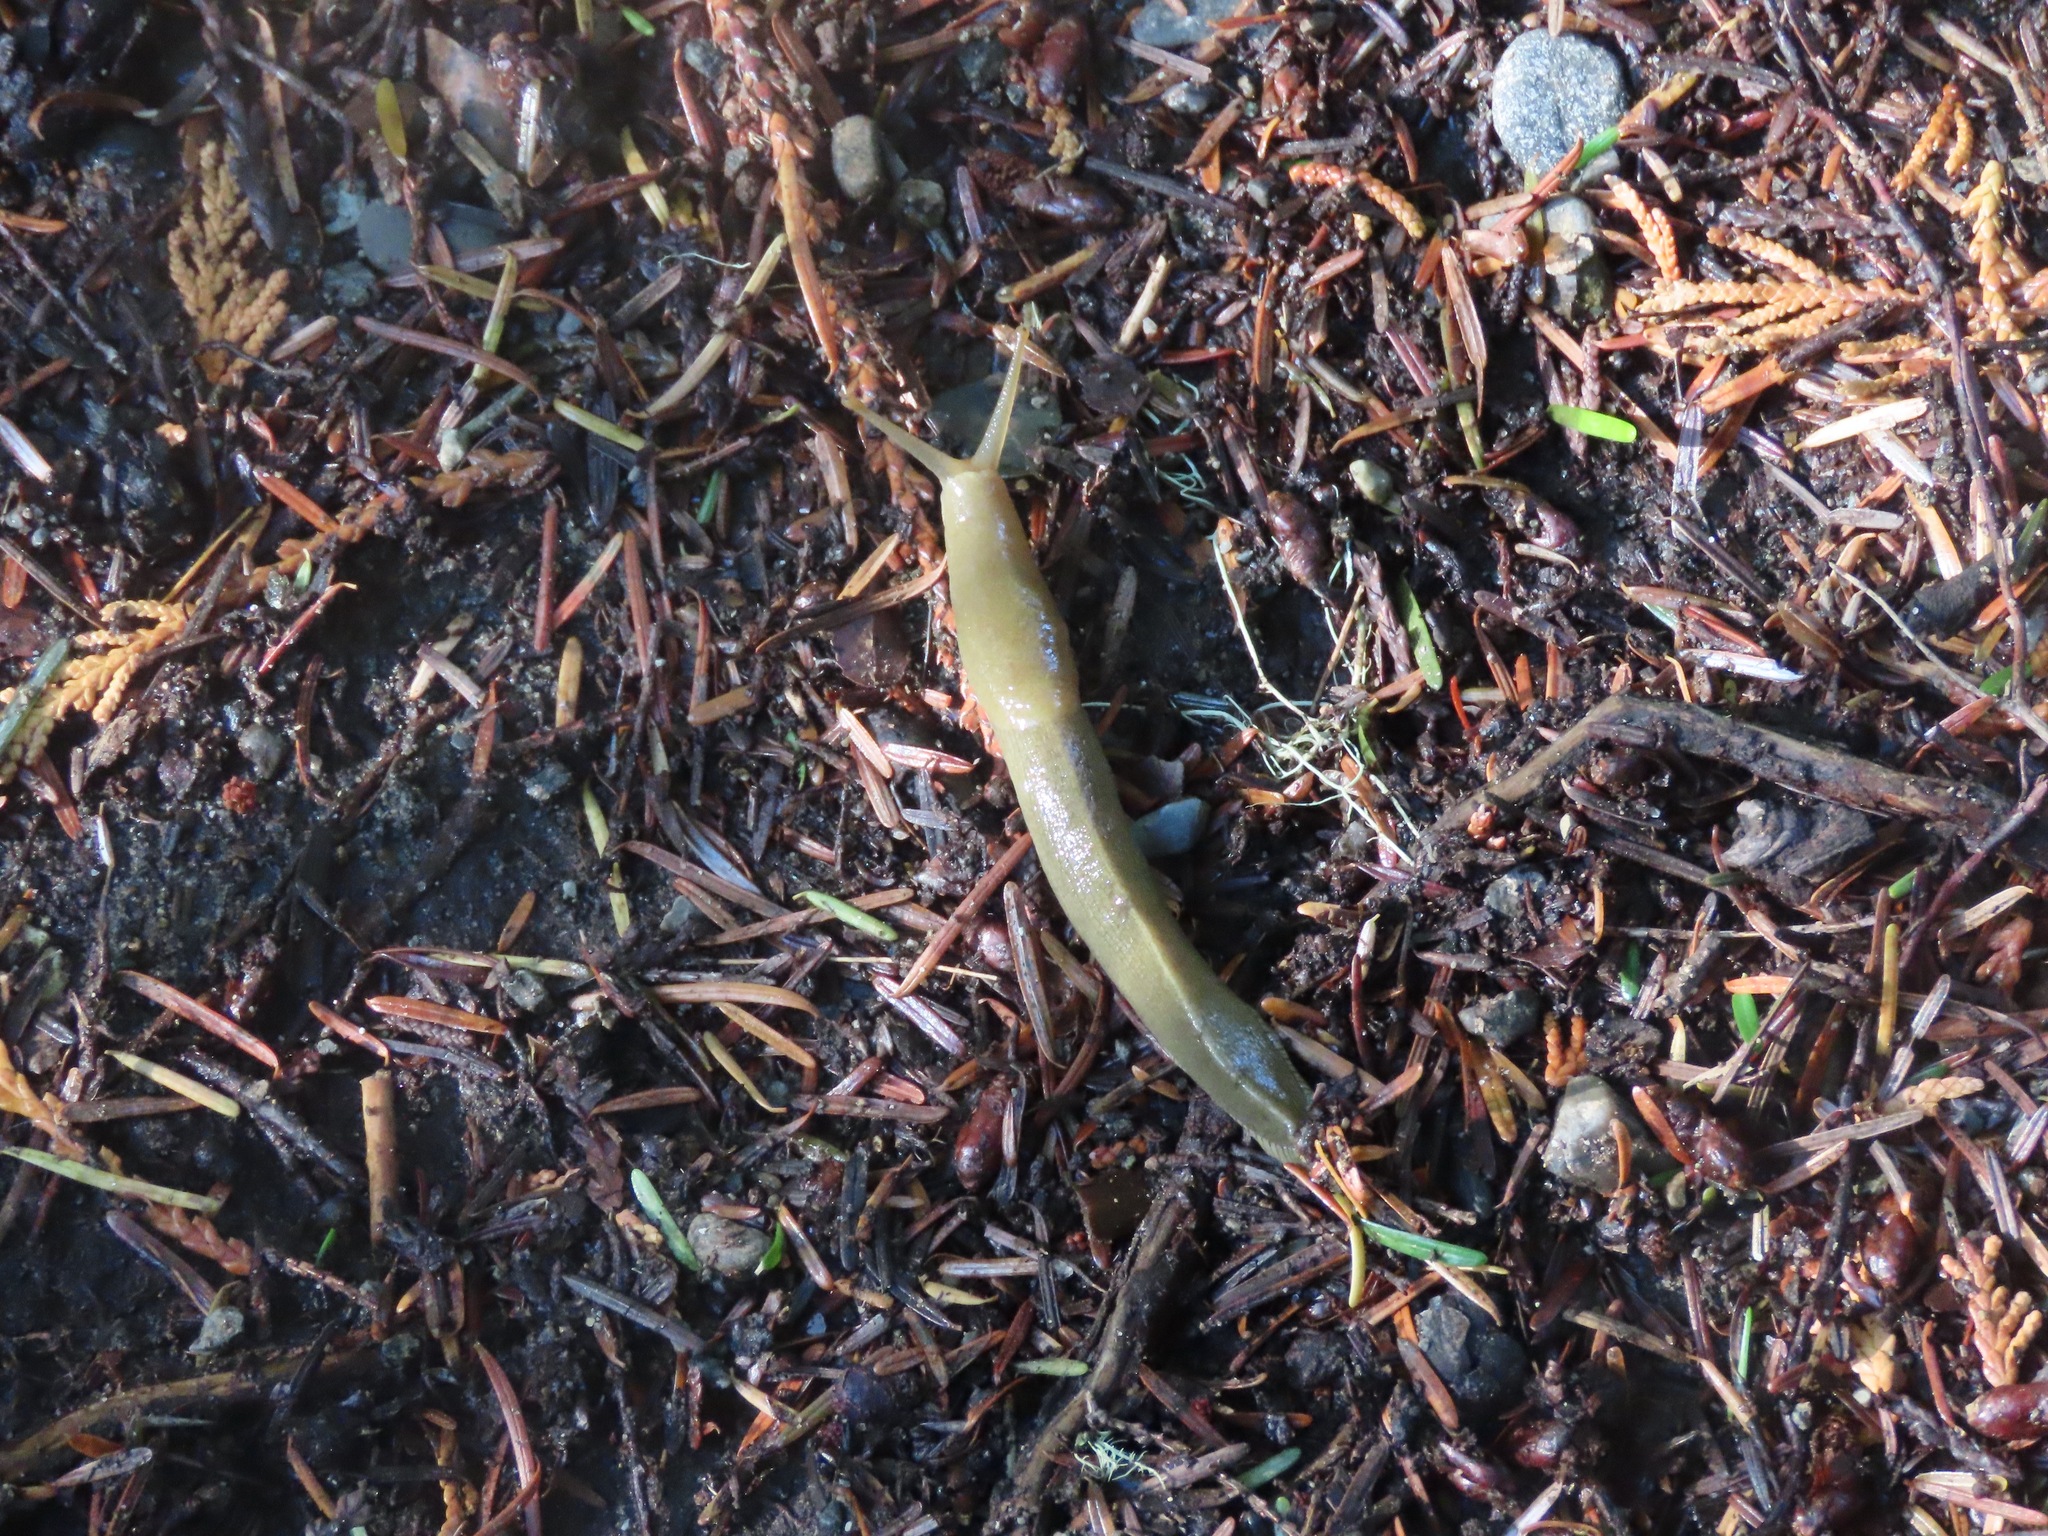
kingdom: Animalia
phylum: Mollusca
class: Gastropoda
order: Stylommatophora
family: Ariolimacidae
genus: Ariolimax
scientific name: Ariolimax columbianus
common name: Pacific banana slug
